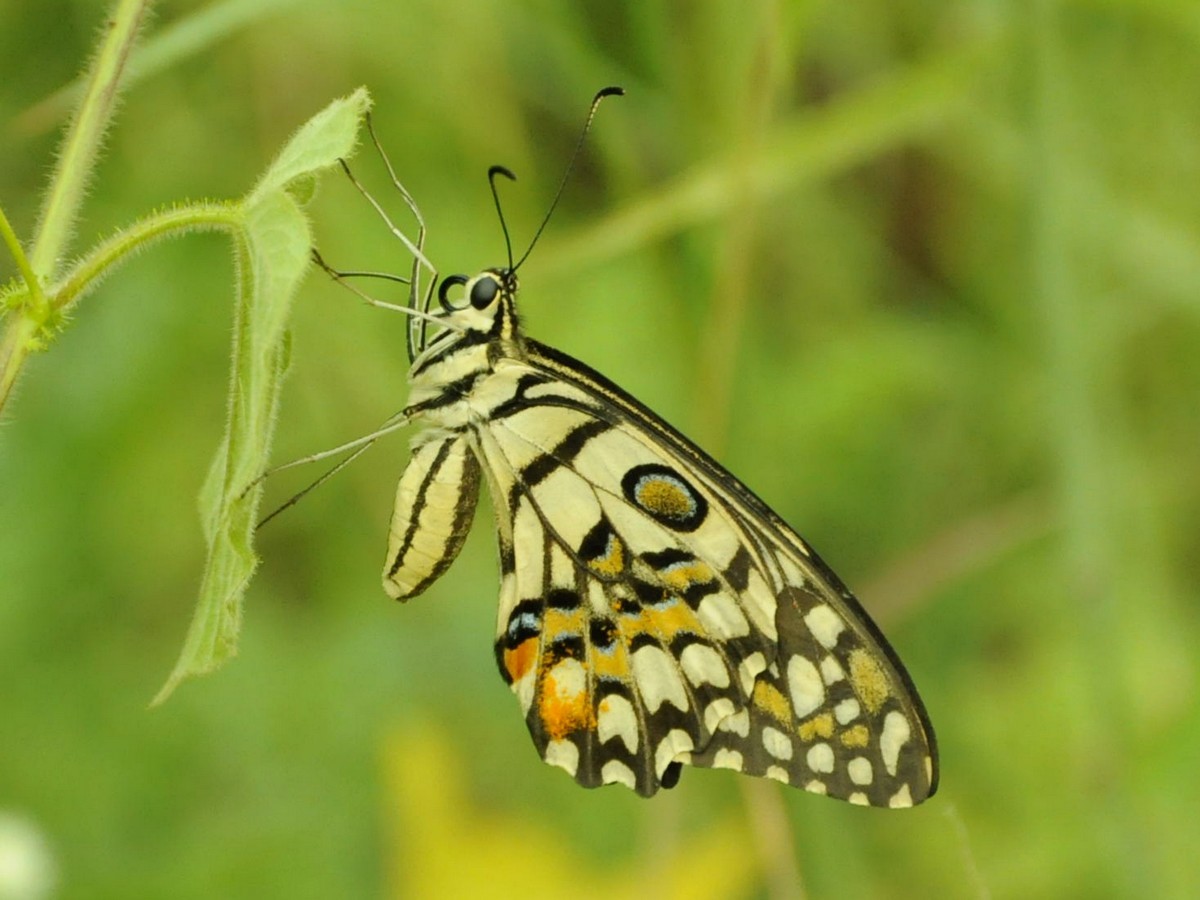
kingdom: Animalia
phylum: Arthropoda
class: Insecta
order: Lepidoptera
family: Papilionidae
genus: Papilio
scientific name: Papilio demoleus
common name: Lime butterfly
